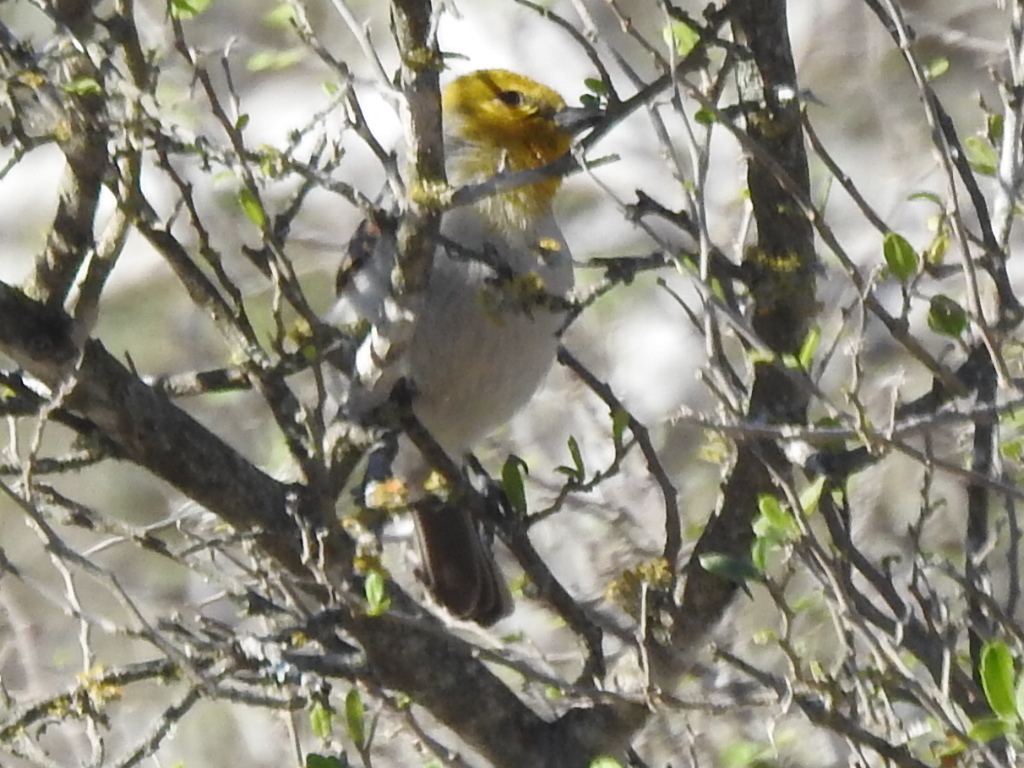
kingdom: Animalia
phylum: Chordata
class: Aves
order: Passeriformes
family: Remizidae
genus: Auriparus
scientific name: Auriparus flaviceps
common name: Verdin
